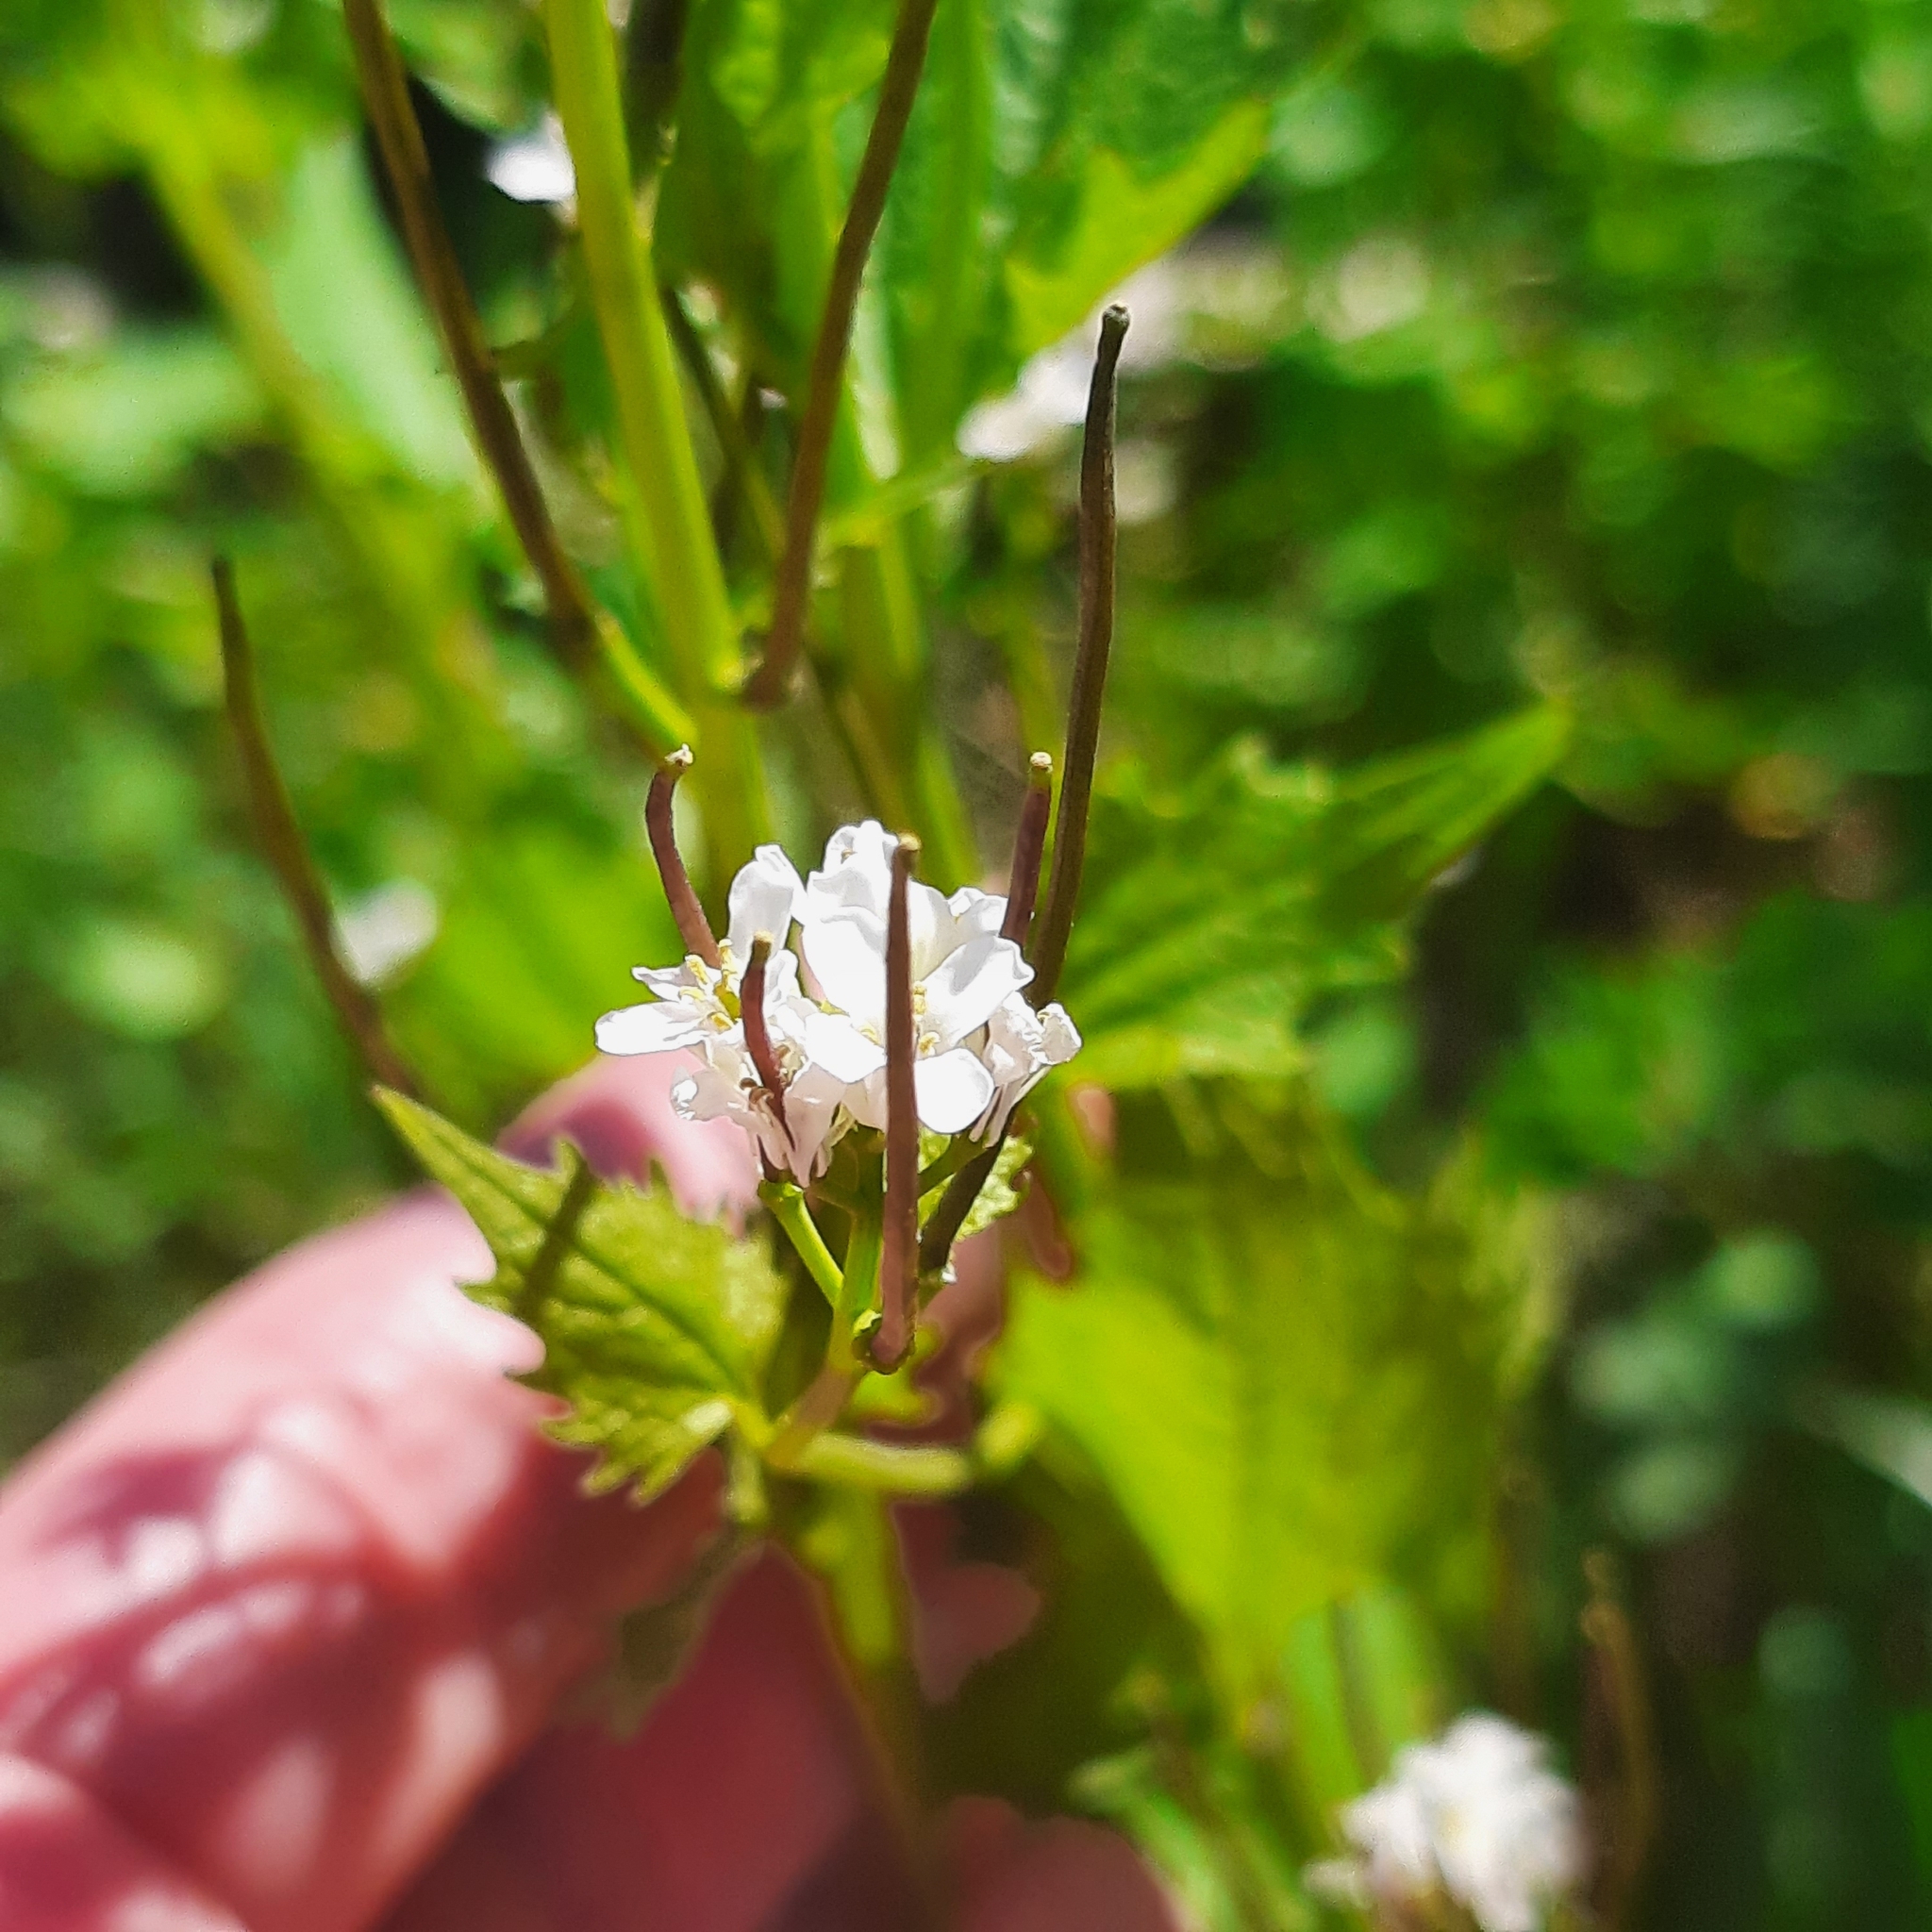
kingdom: Plantae
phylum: Tracheophyta
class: Magnoliopsida
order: Brassicales
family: Brassicaceae
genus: Alliaria
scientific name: Alliaria petiolata
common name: Garlic mustard
